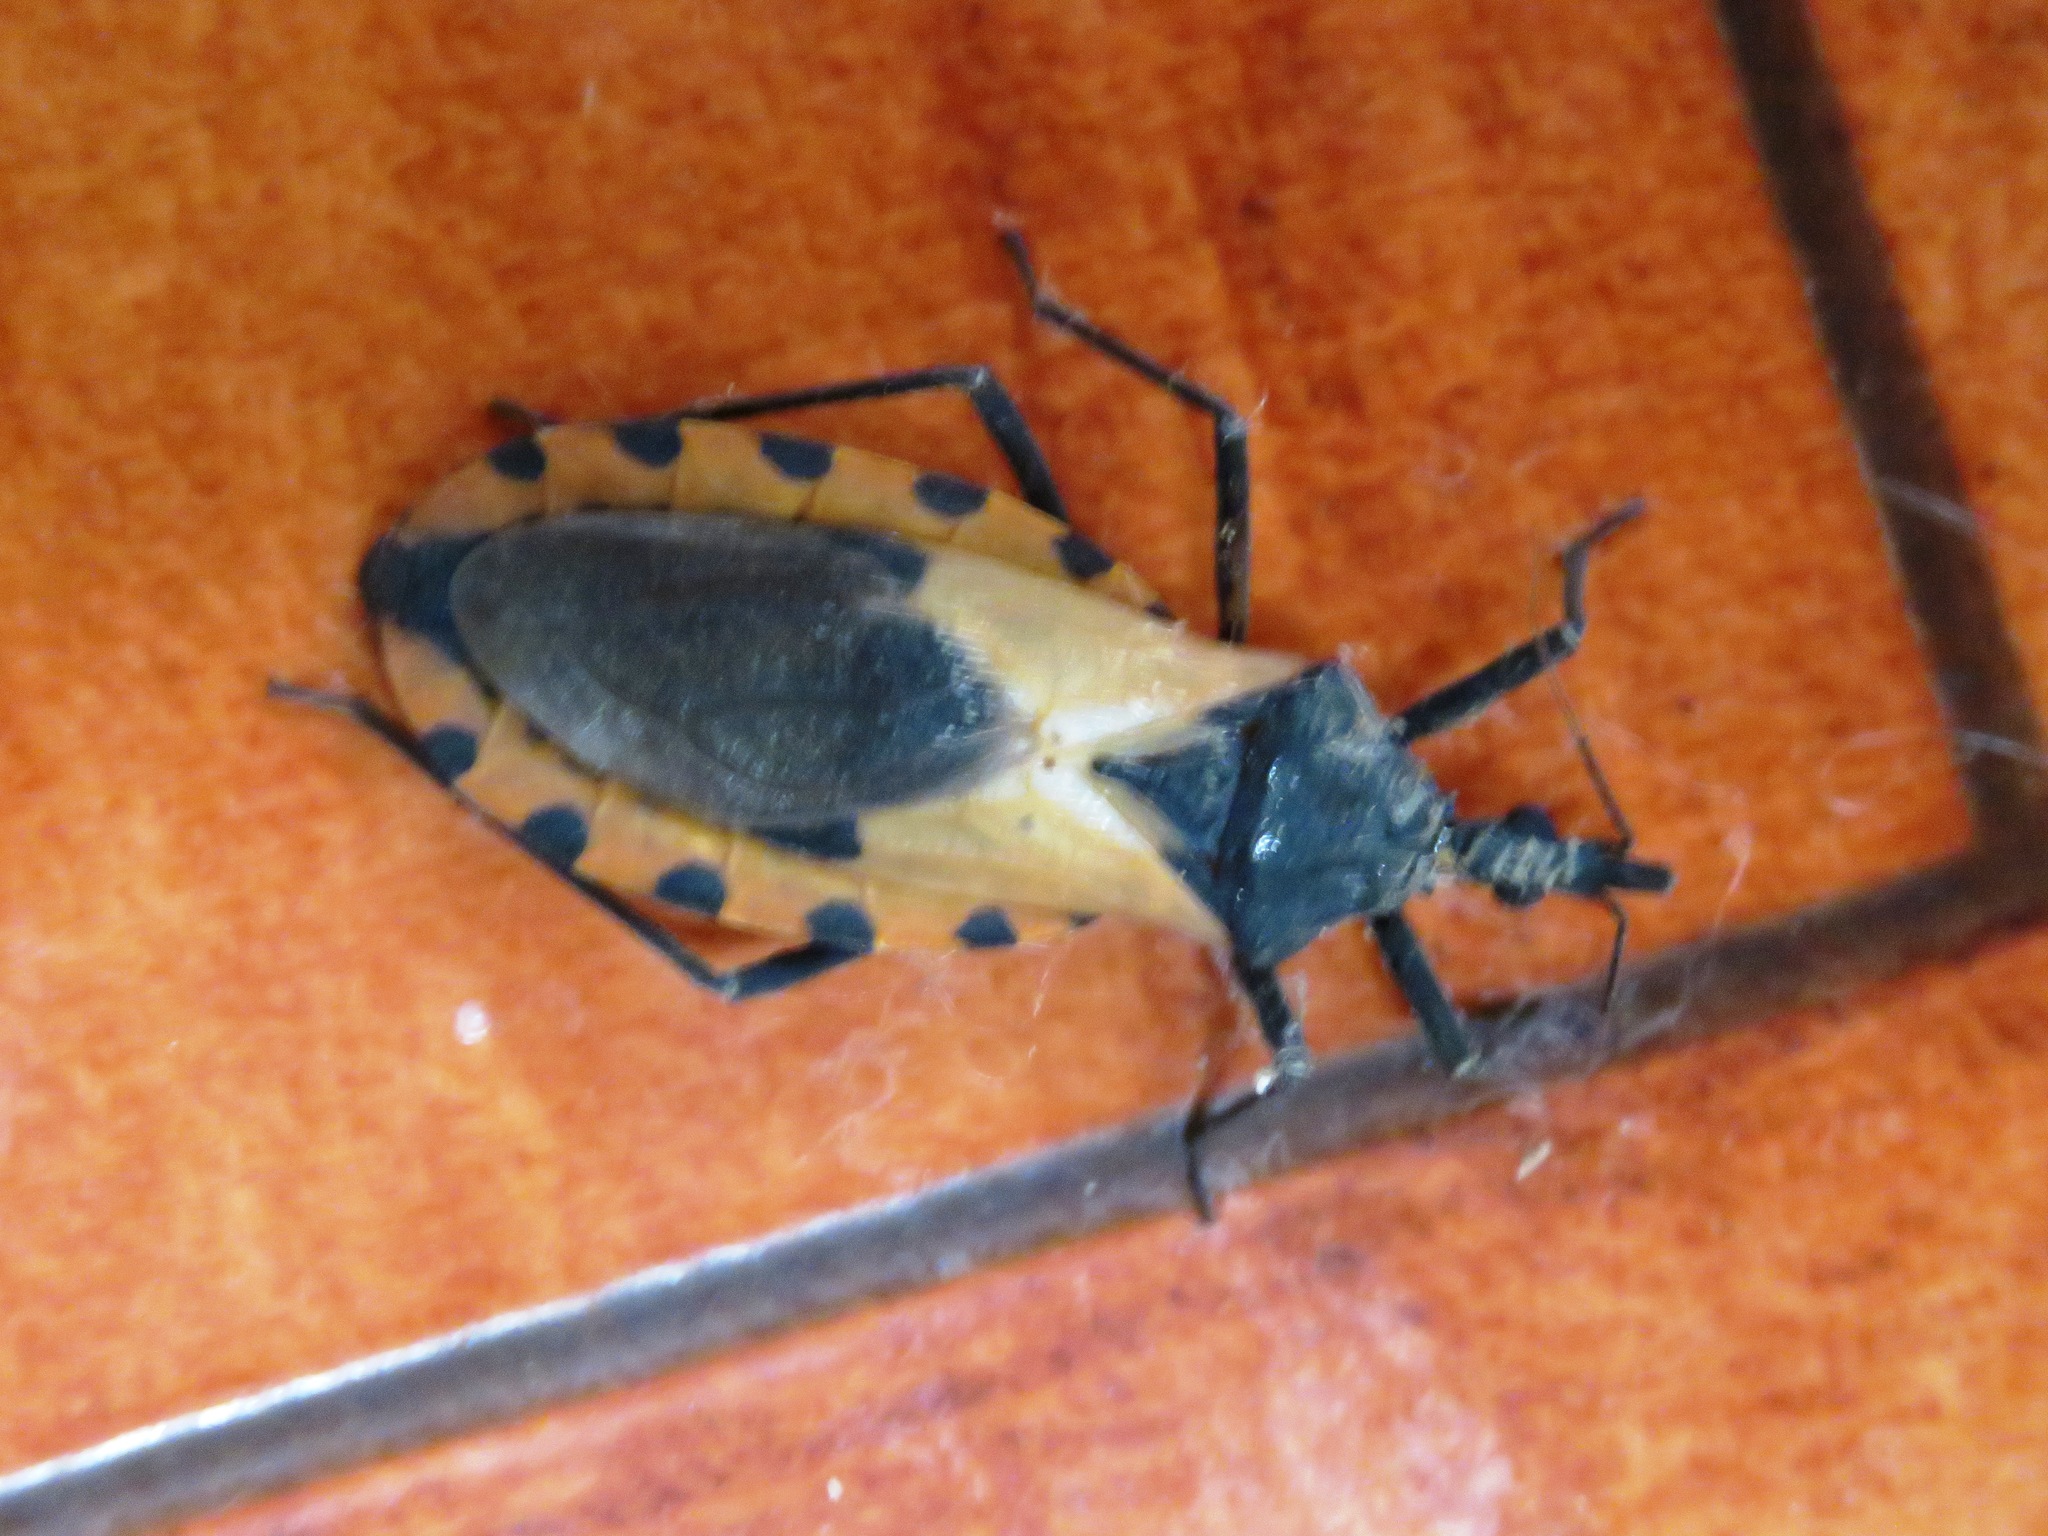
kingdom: Animalia
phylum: Arthropoda
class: Insecta
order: Hemiptera
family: Reduviidae
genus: Meccus
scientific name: Meccus dimidiatus
